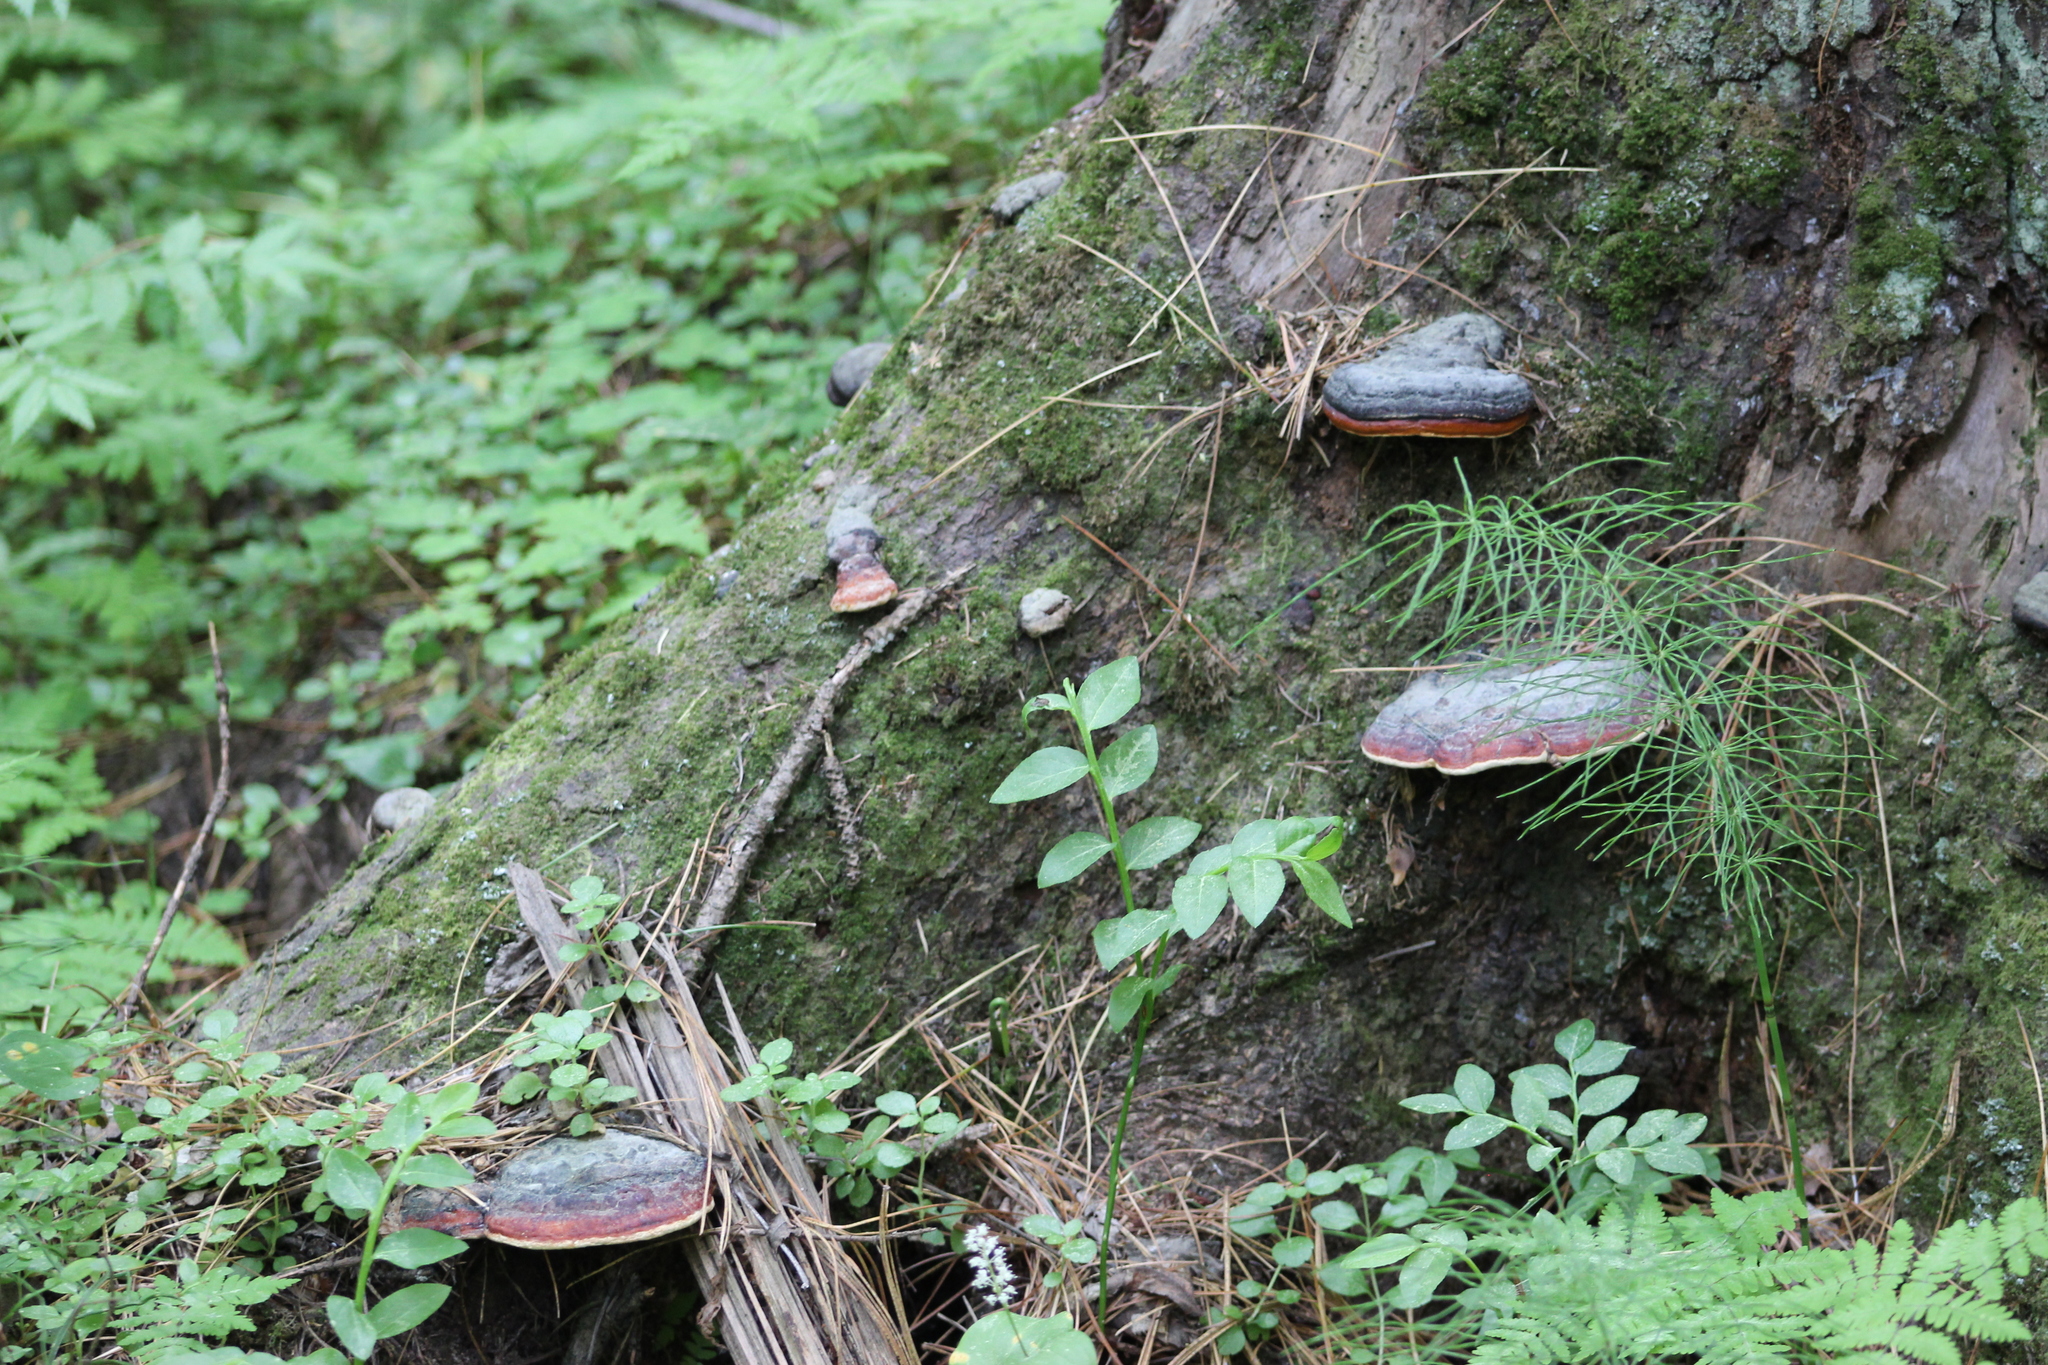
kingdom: Fungi
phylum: Basidiomycota
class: Agaricomycetes
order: Polyporales
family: Fomitopsidaceae
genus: Fomitopsis
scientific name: Fomitopsis pinicola
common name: Red-belted bracket
